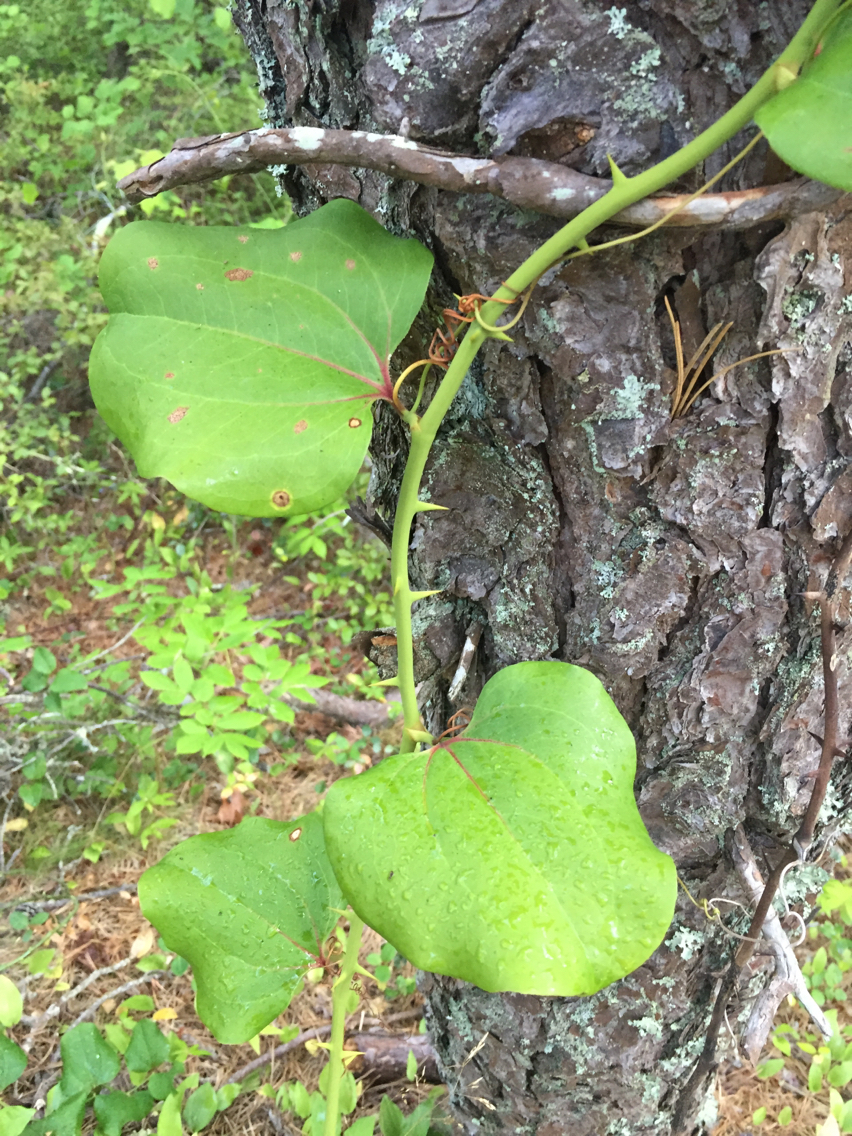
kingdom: Plantae
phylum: Tracheophyta
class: Liliopsida
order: Liliales
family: Smilacaceae
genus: Smilax
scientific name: Smilax rotundifolia
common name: Bullbriar
